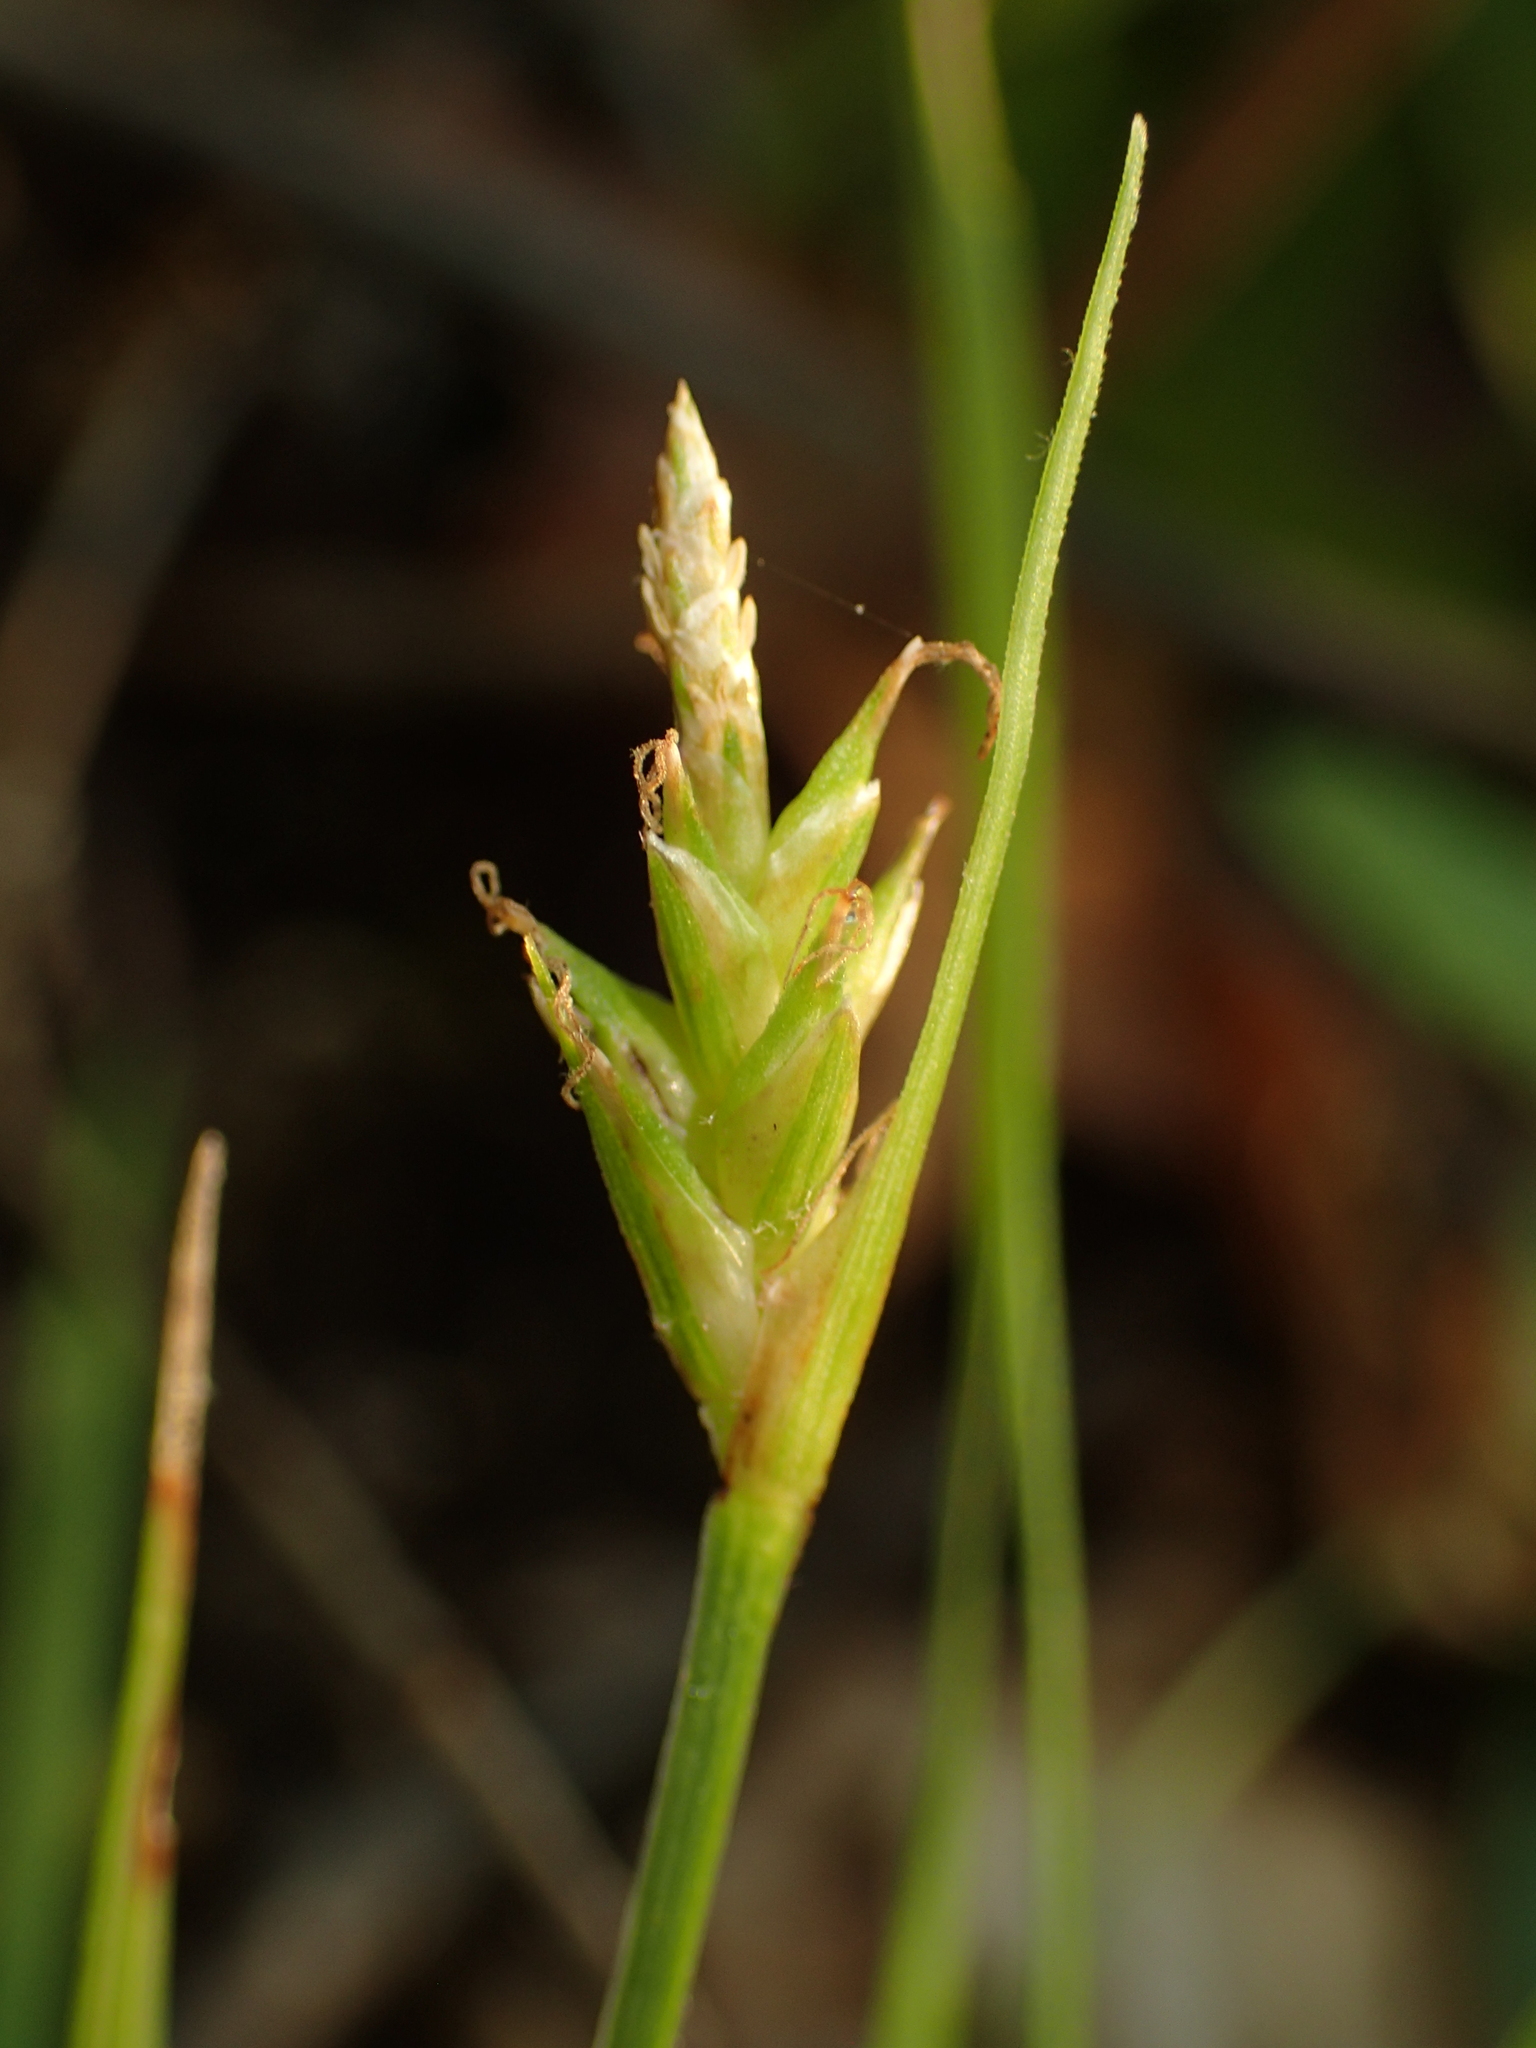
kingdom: Plantae
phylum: Tracheophyta
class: Liliopsida
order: Poales
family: Cyperaceae
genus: Carex
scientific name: Carex tonsa
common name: Bald sedge
